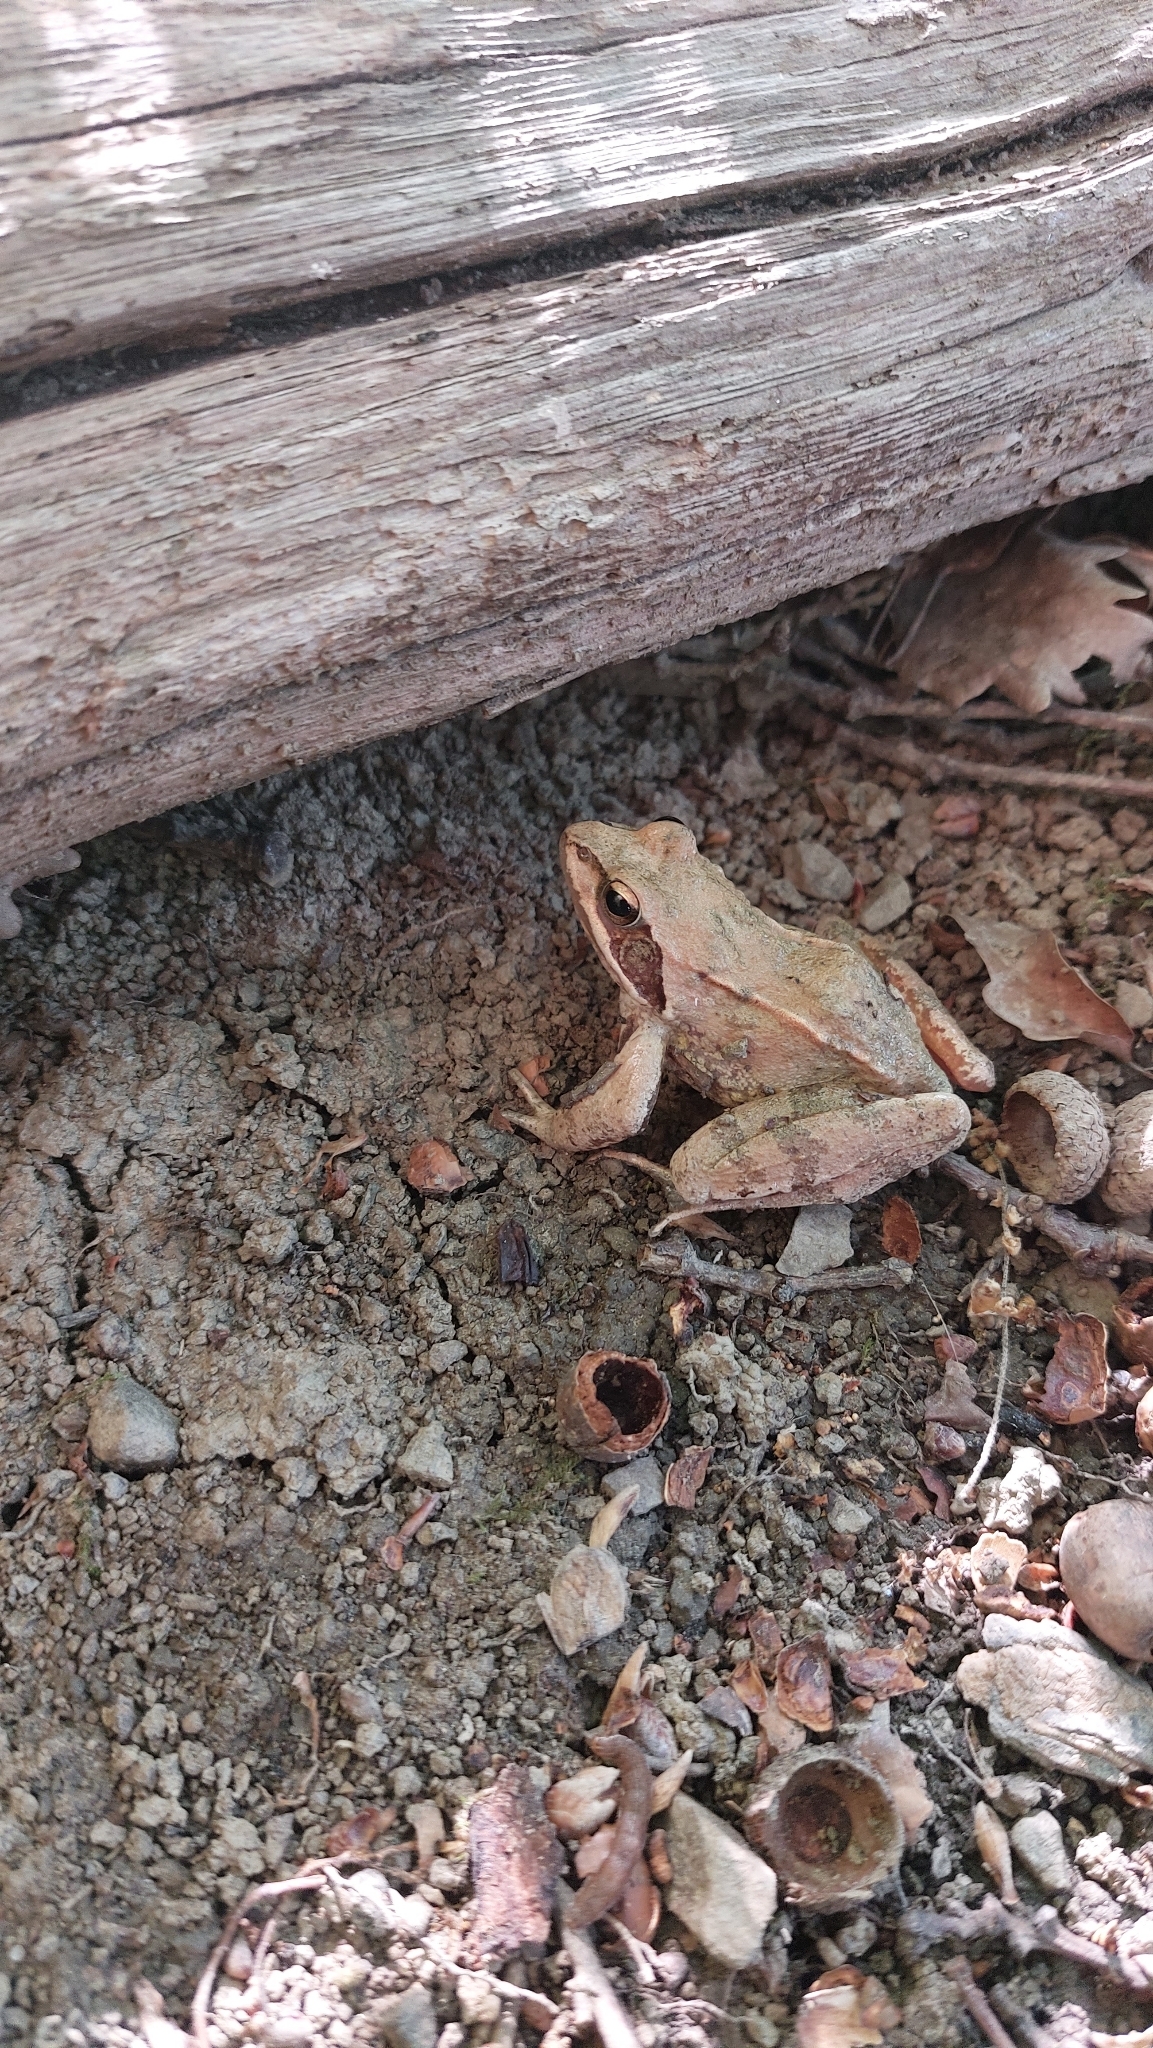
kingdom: Animalia
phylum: Chordata
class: Amphibia
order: Anura
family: Ranidae
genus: Rana
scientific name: Rana dalmatina
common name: Agile frog
